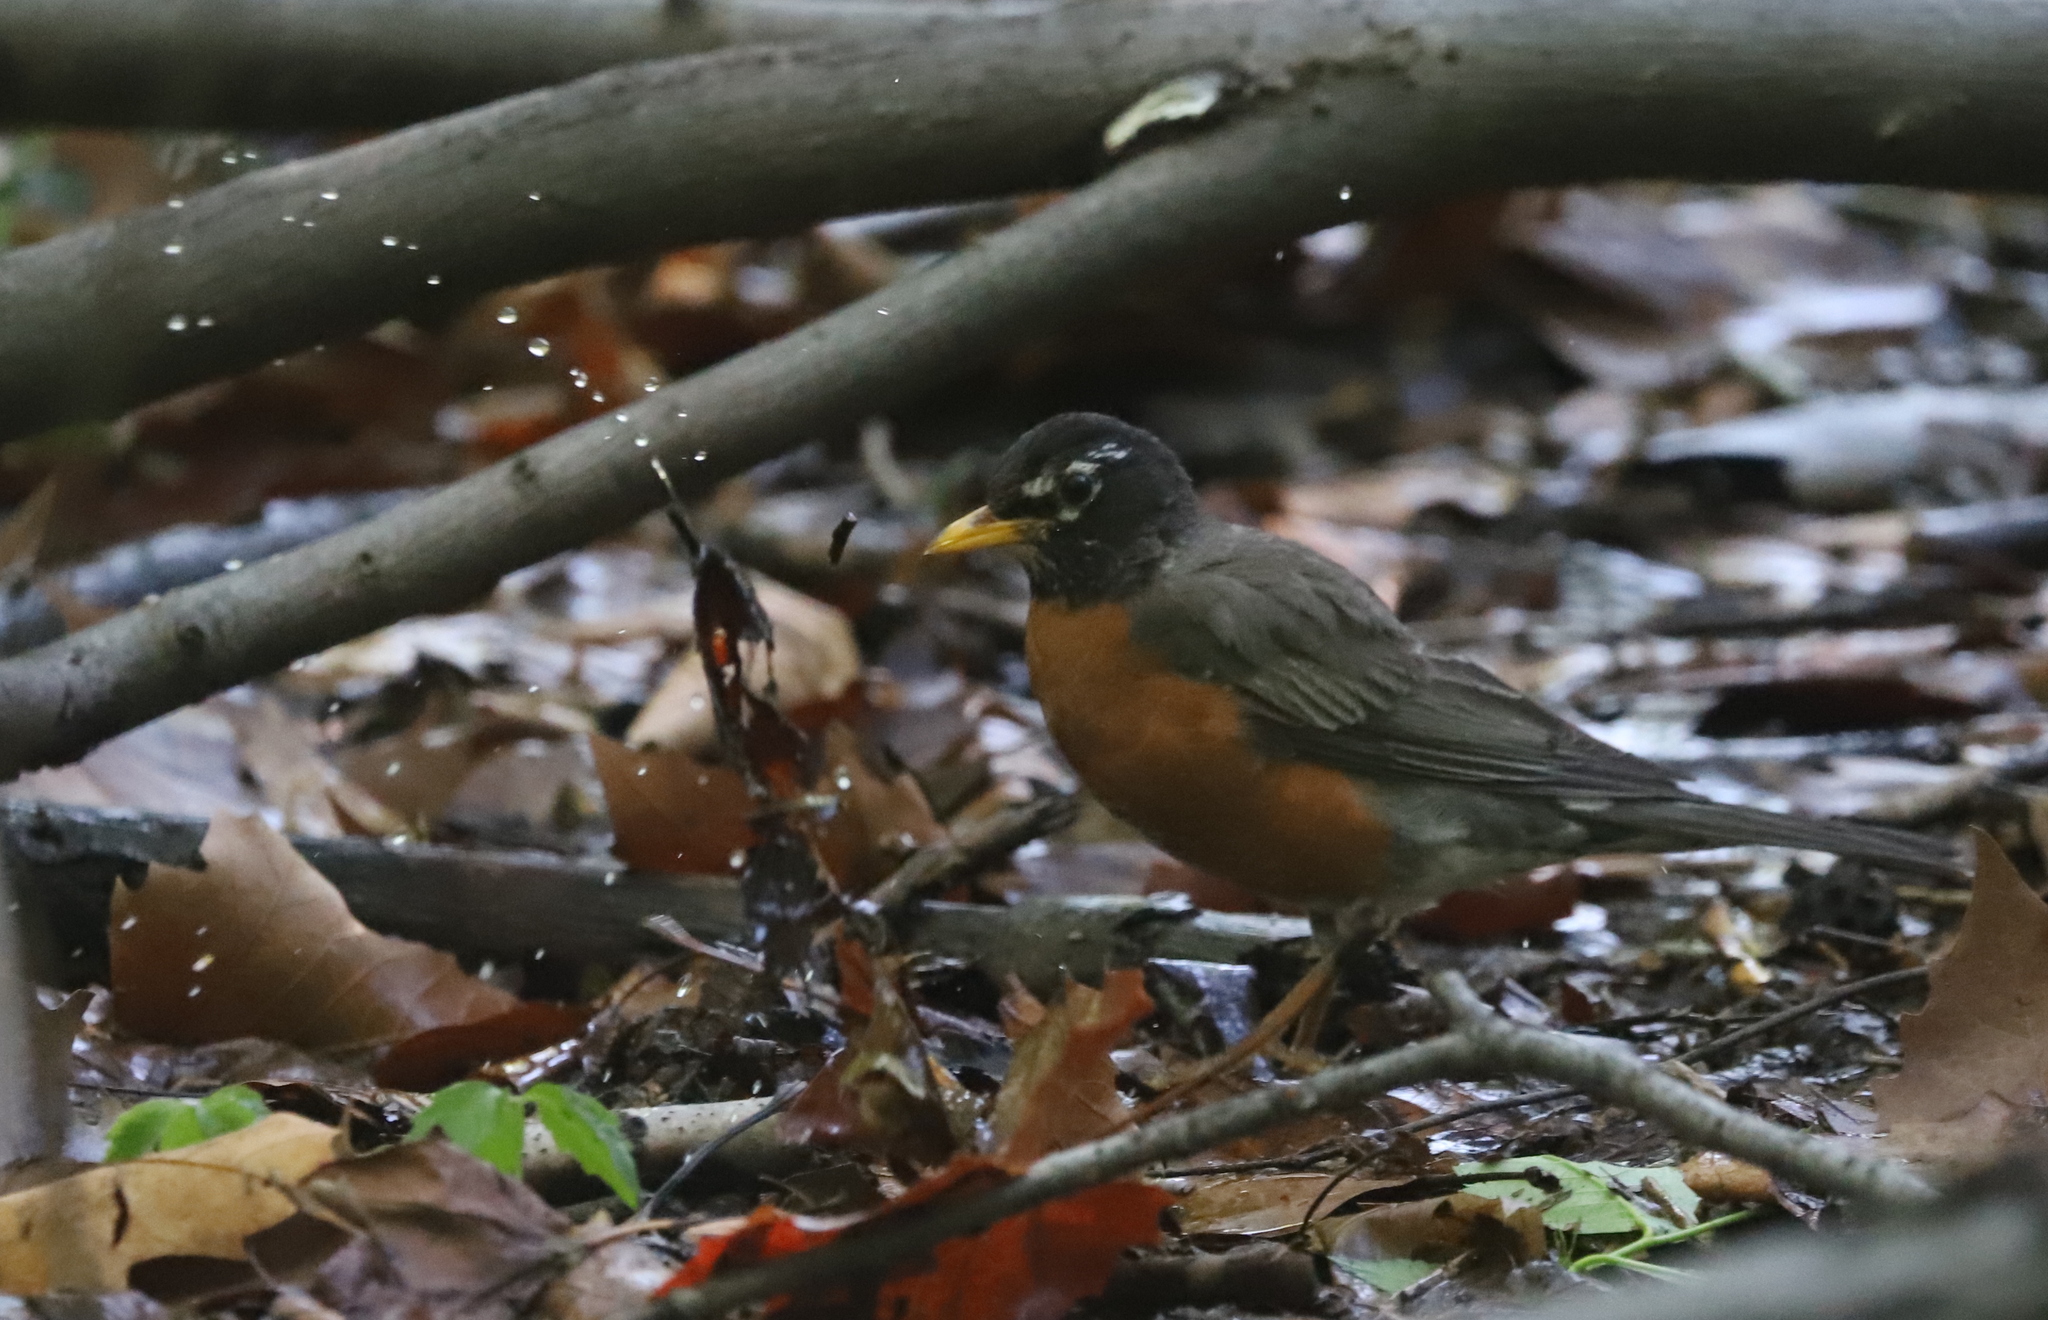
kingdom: Animalia
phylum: Chordata
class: Aves
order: Passeriformes
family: Turdidae
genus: Turdus
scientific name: Turdus migratorius
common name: American robin
